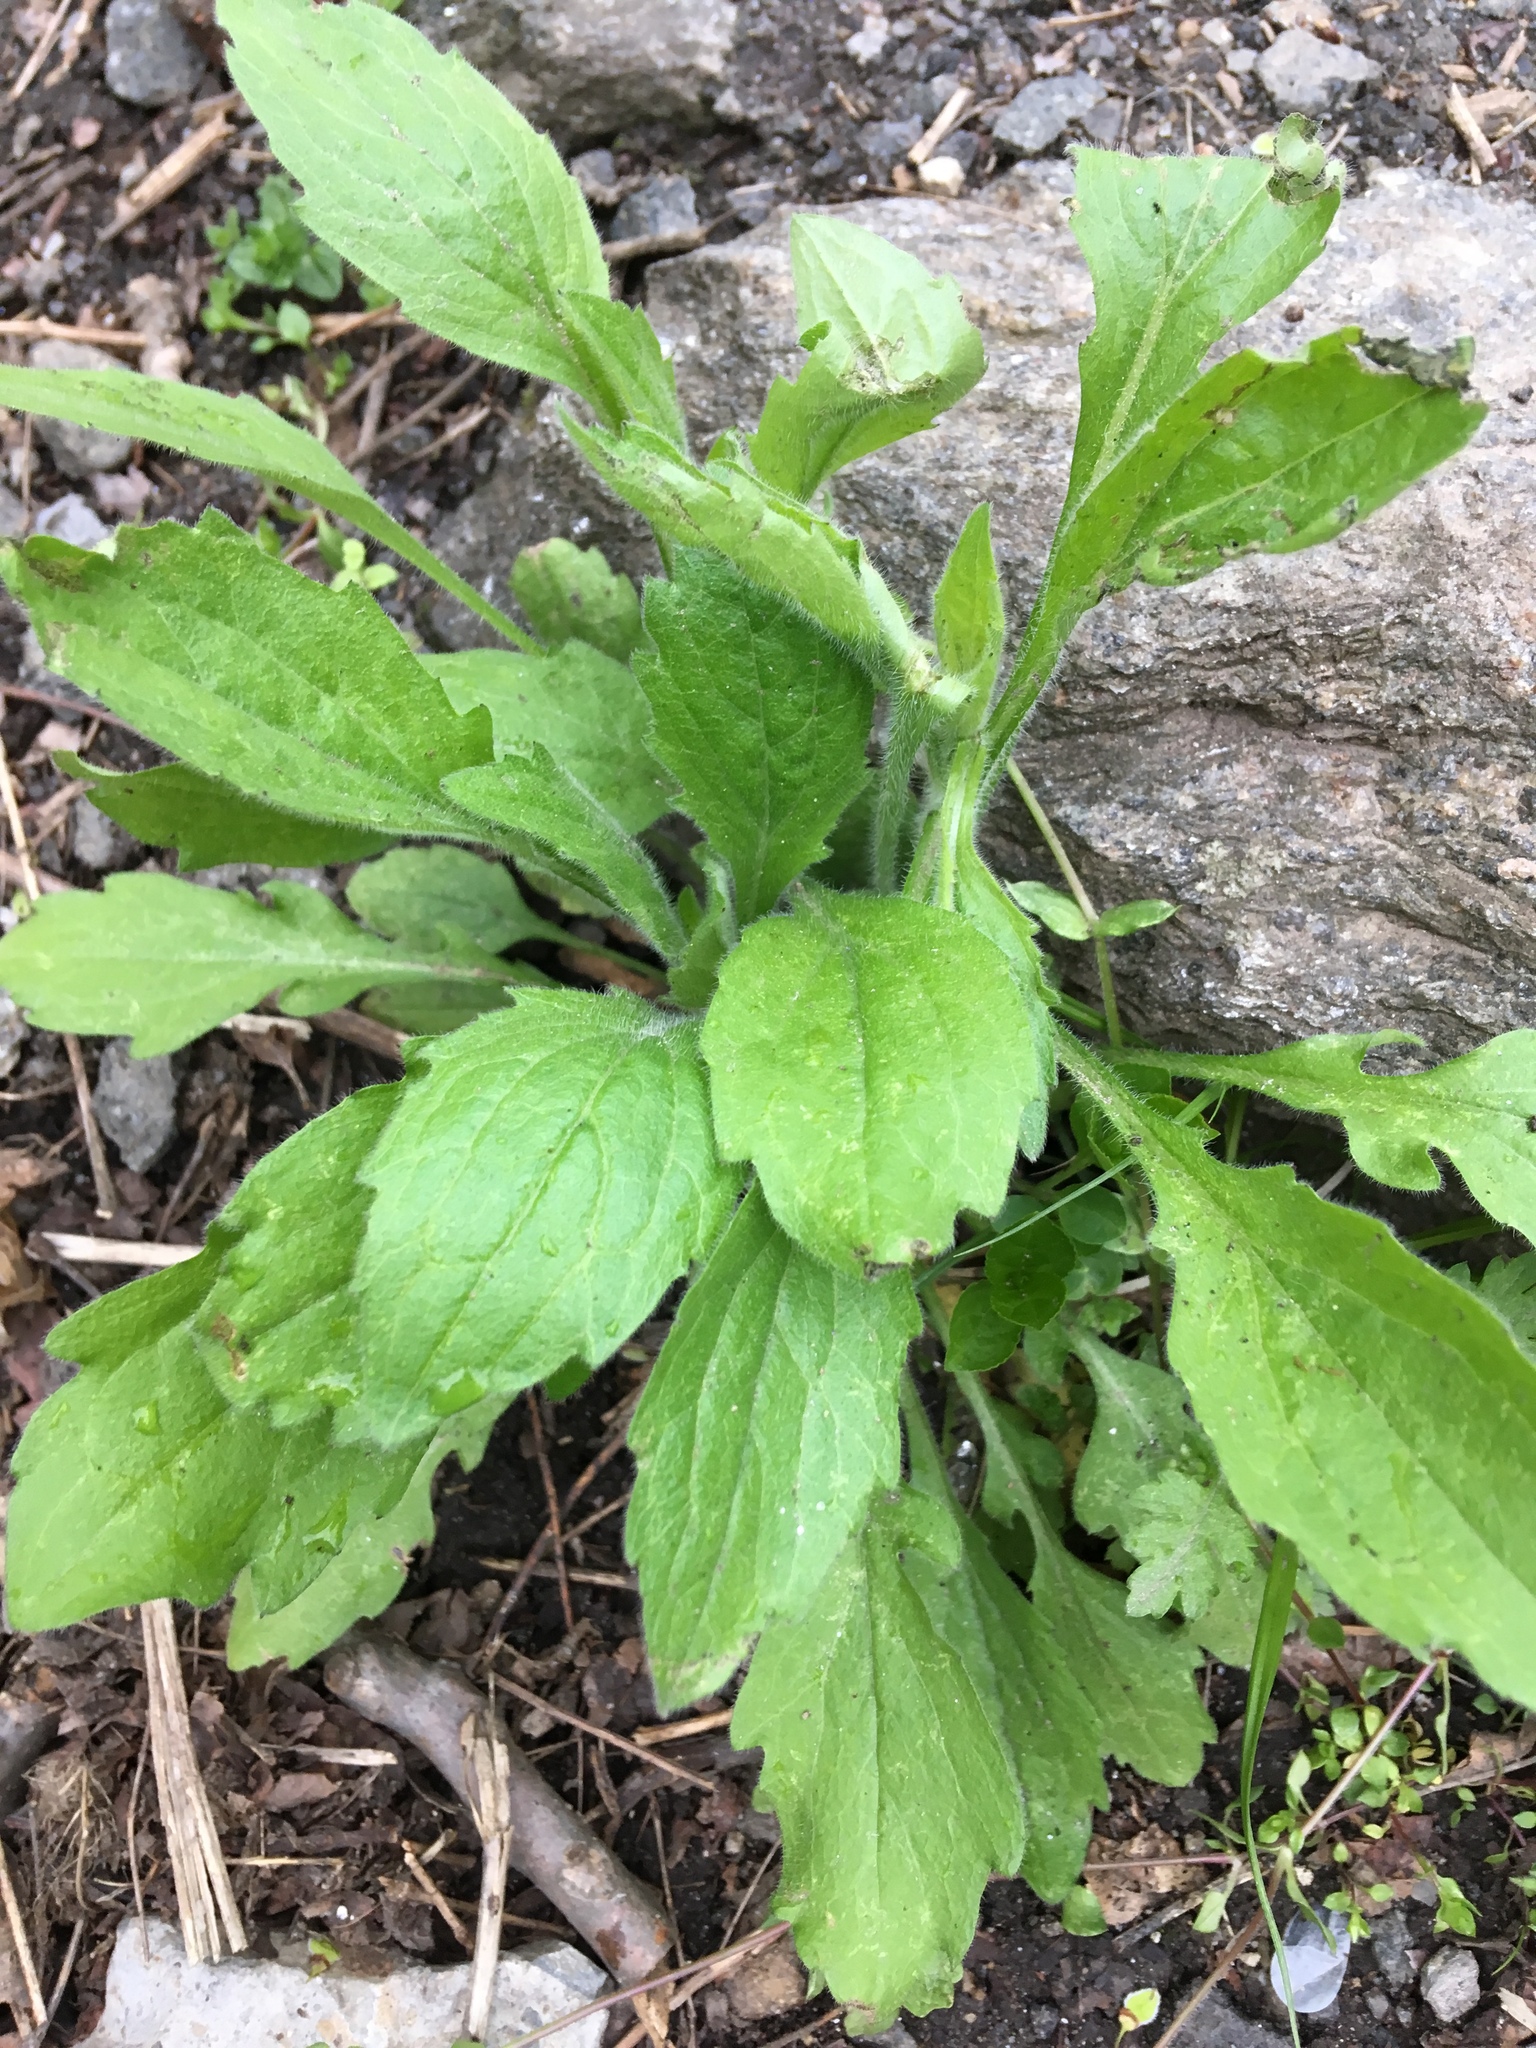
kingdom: Plantae
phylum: Tracheophyta
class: Magnoliopsida
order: Asterales
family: Asteraceae
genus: Erigeron
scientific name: Erigeron annuus
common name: Tall fleabane
